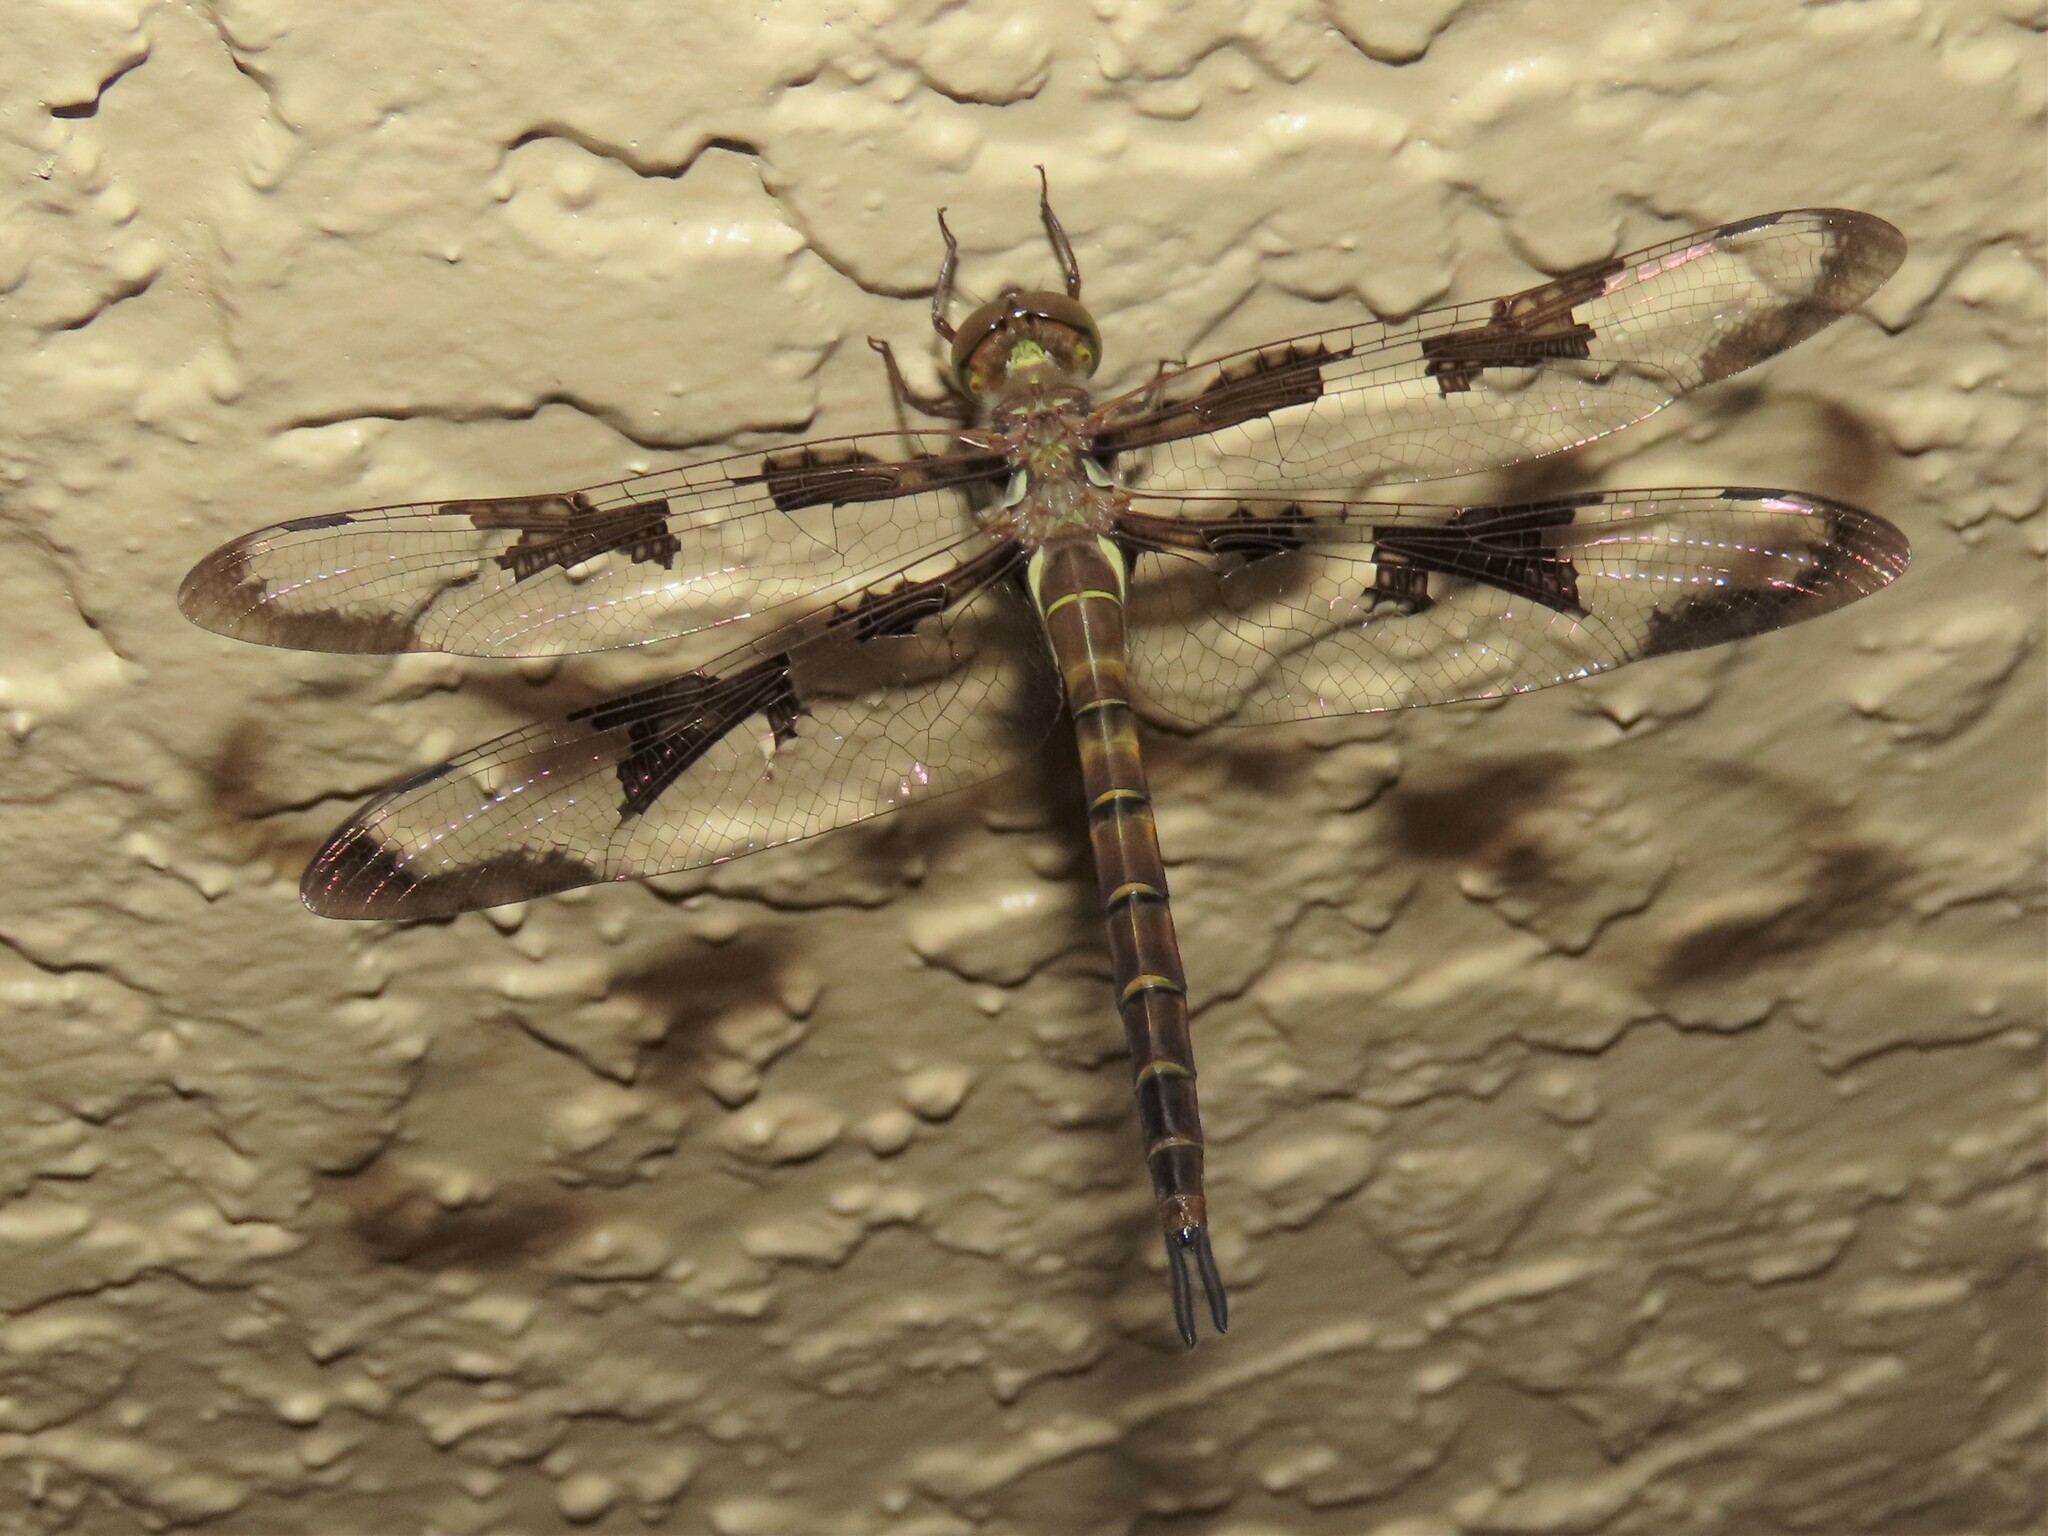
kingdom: Animalia
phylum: Arthropoda
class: Insecta
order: Odonata
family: Corduliidae
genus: Epitheca
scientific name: Epitheca princeps
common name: Prince baskettail
